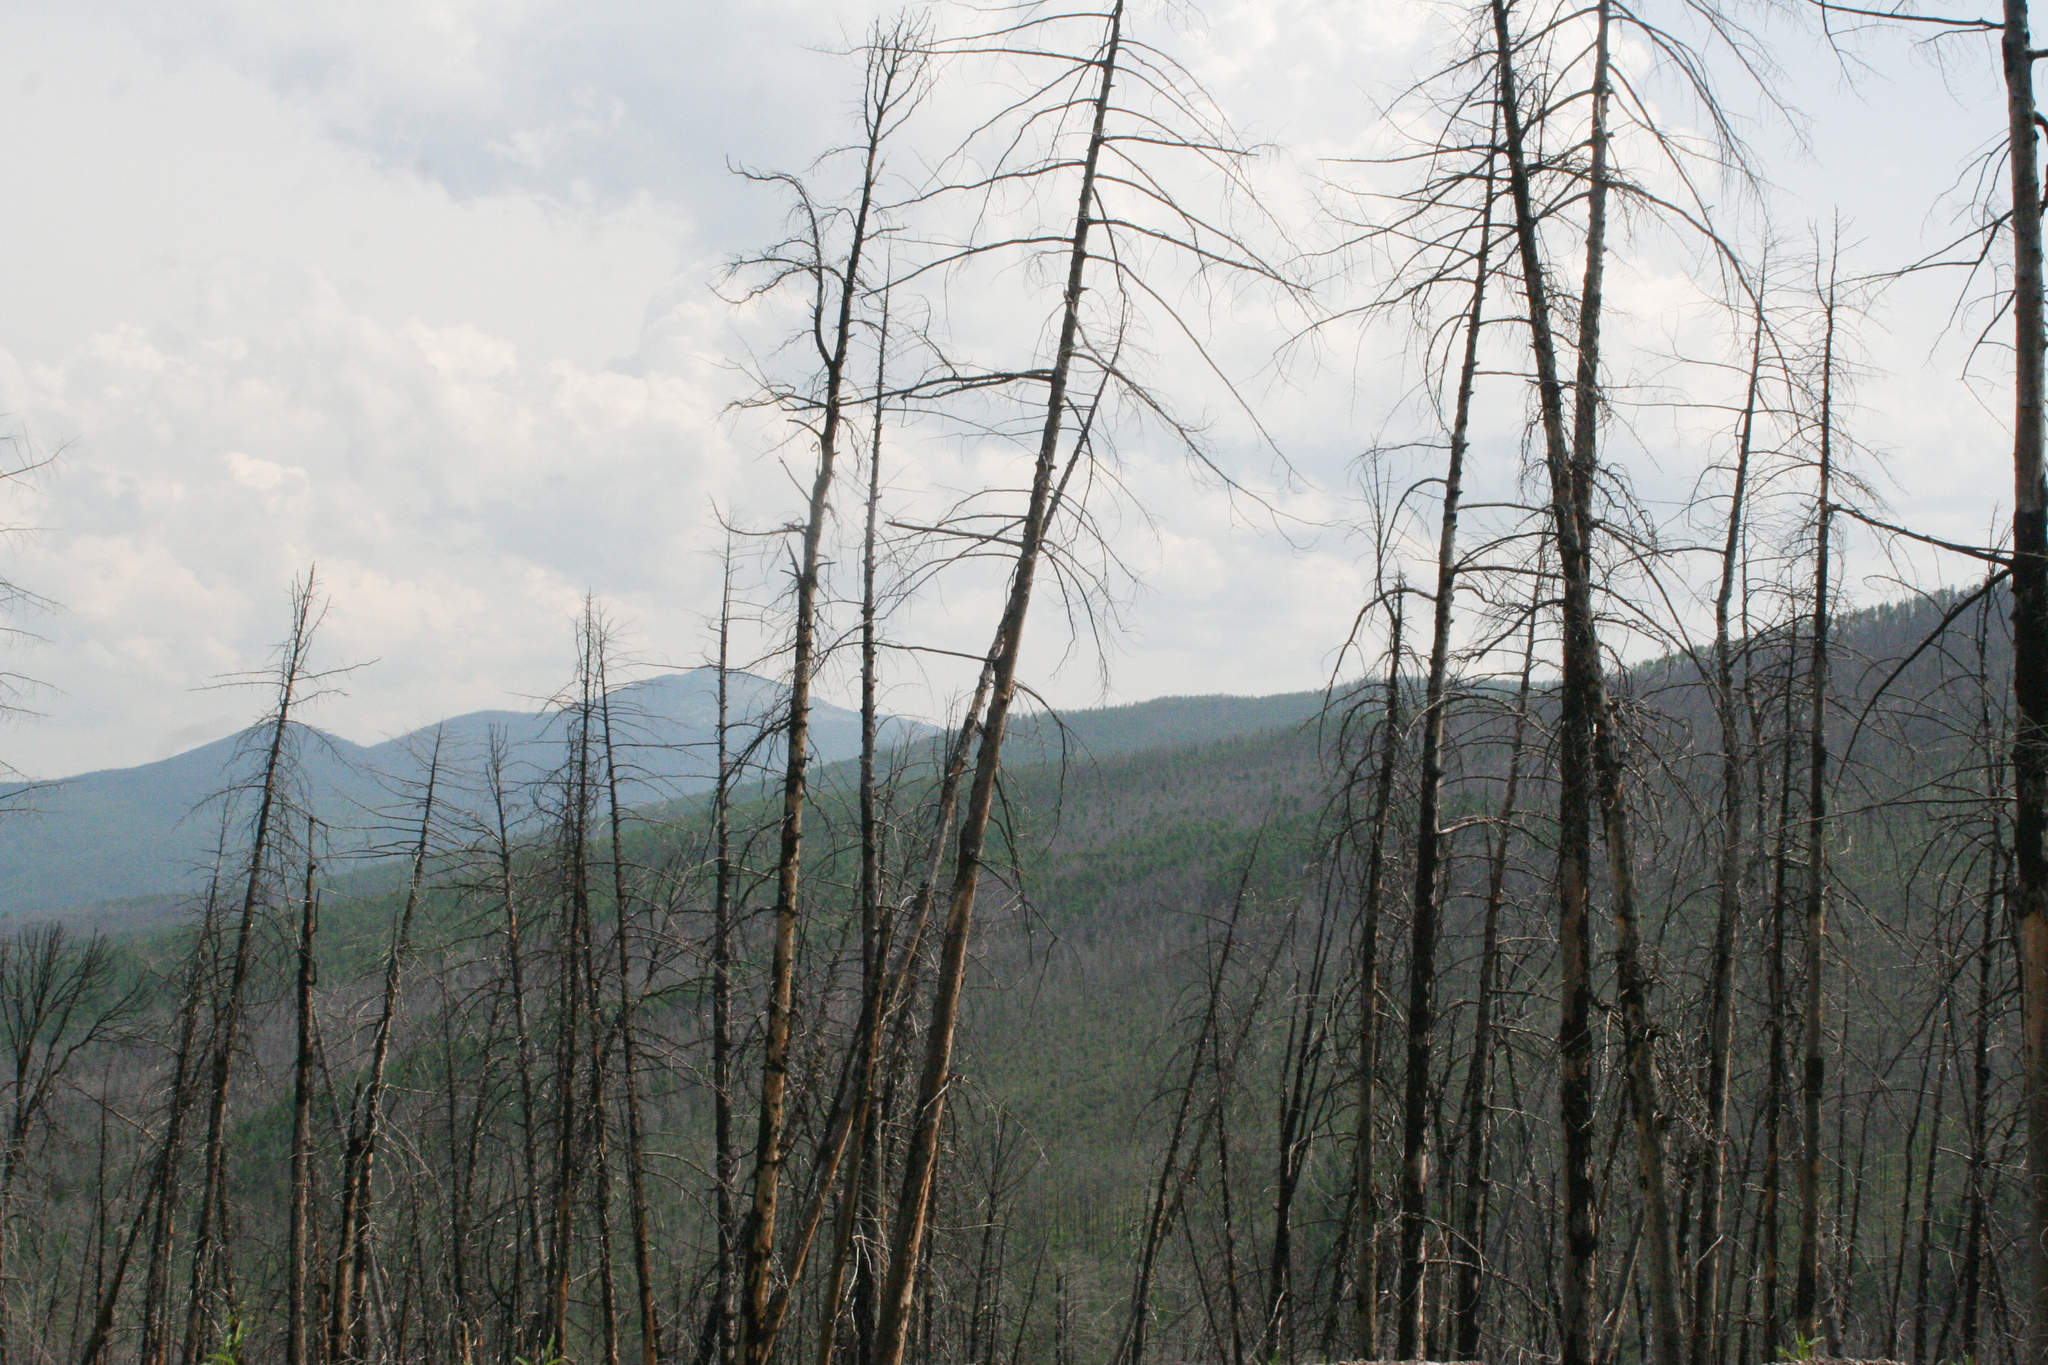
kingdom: Plantae
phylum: Tracheophyta
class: Pinopsida
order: Pinales
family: Pinaceae
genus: Larix
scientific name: Larix sibirica
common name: Siberian larch
